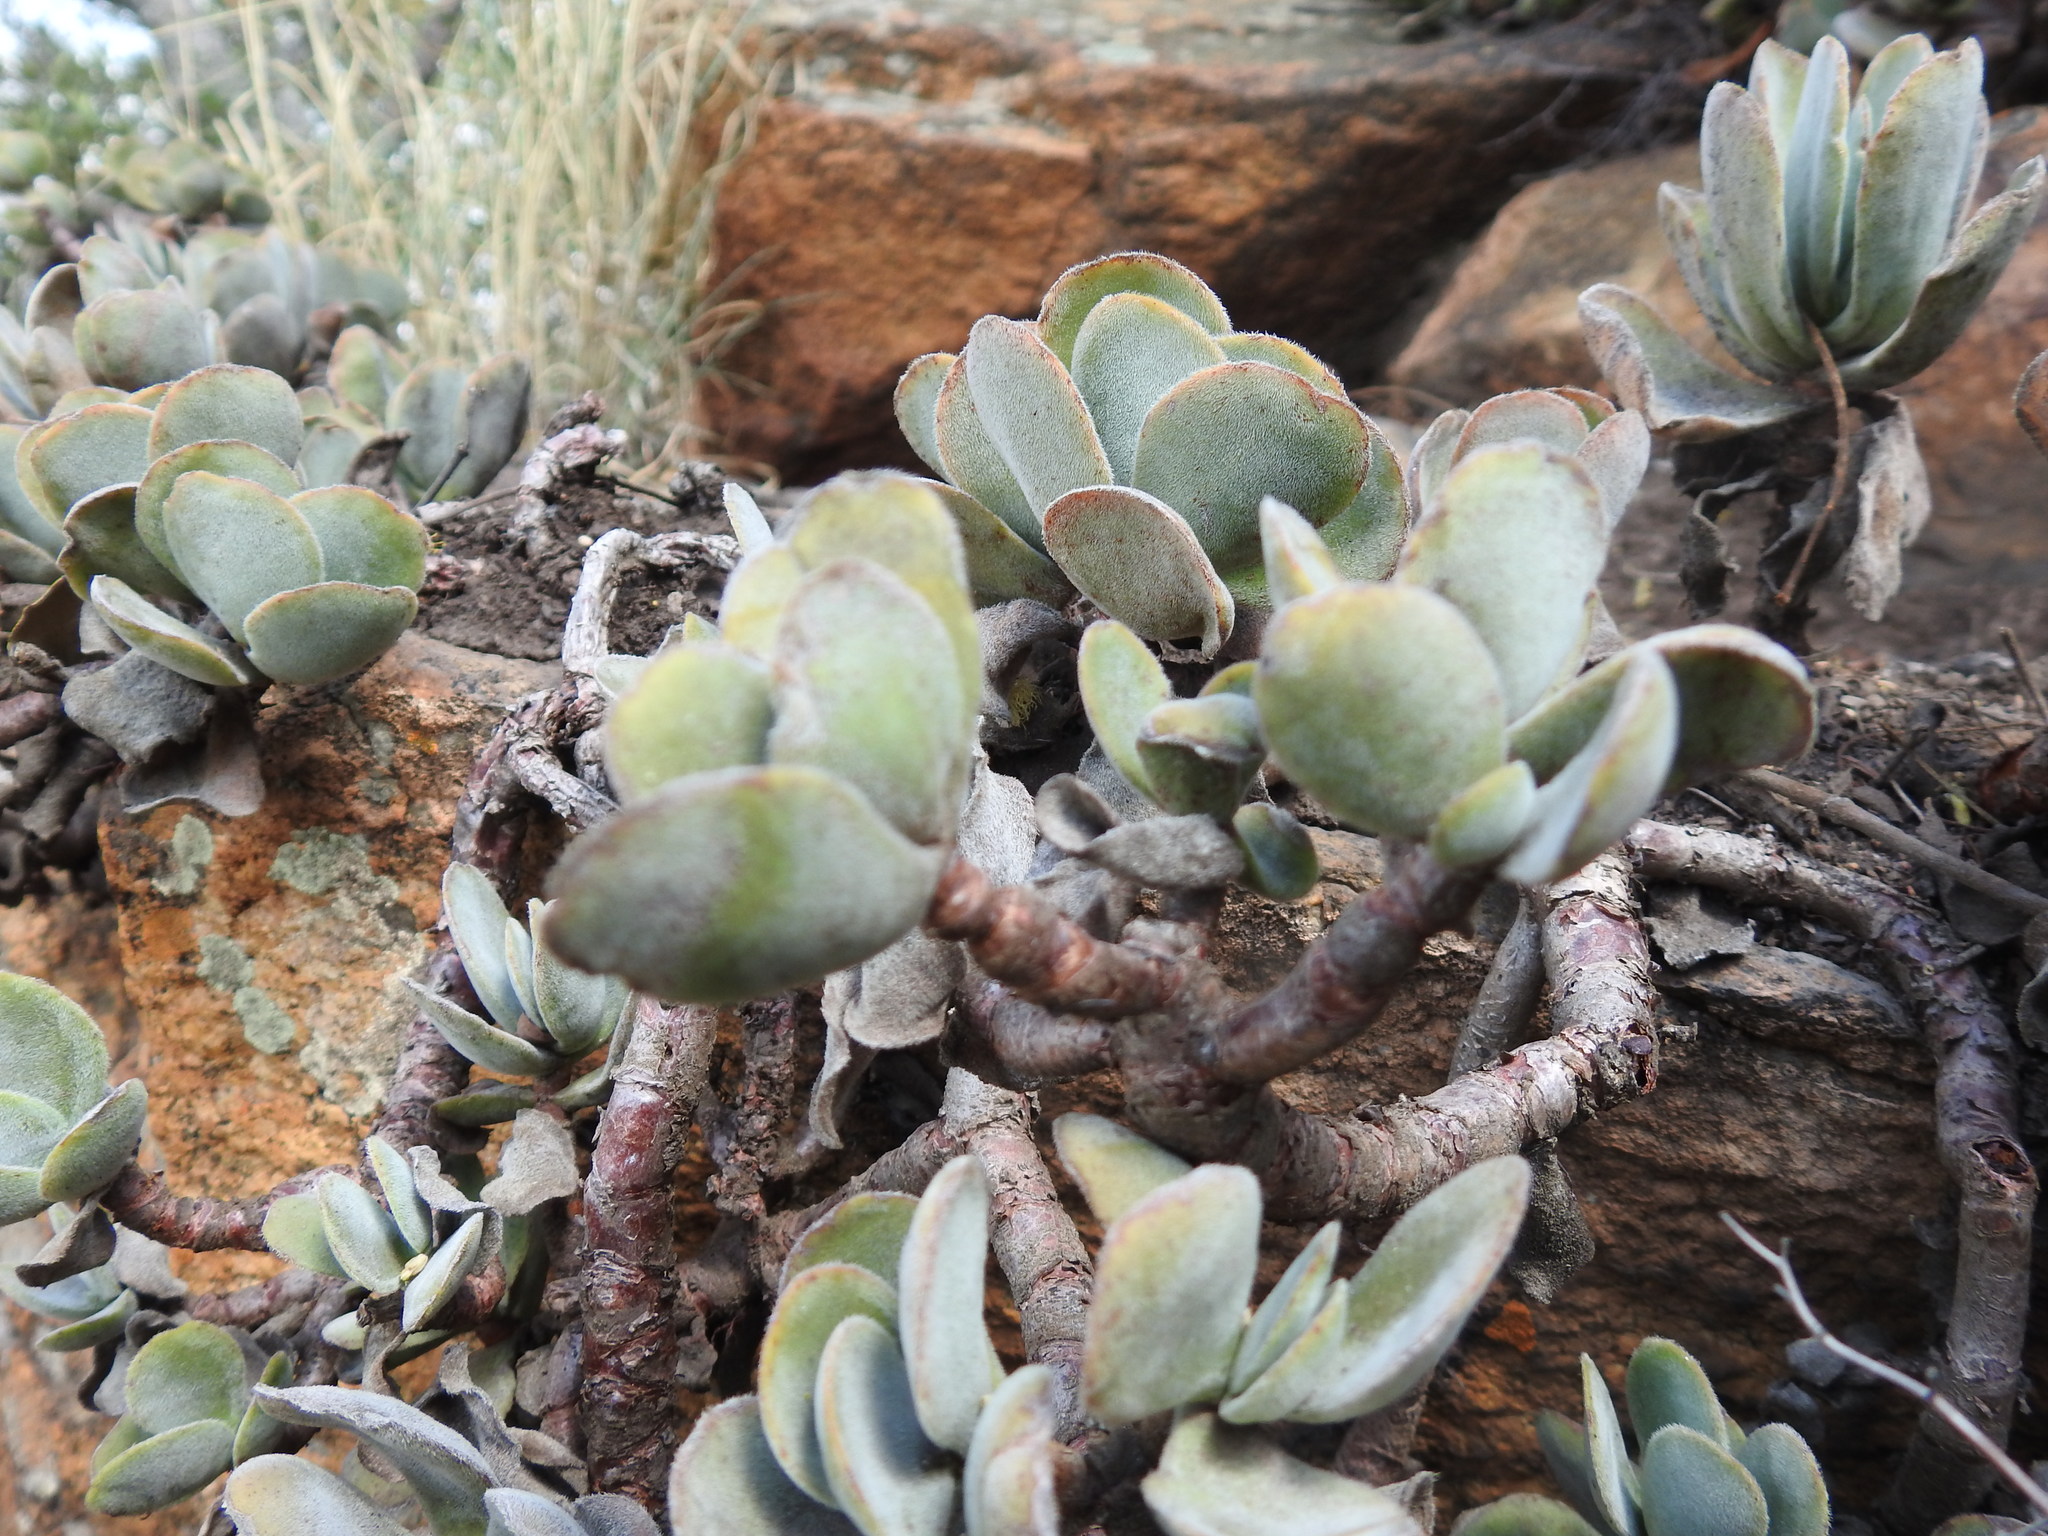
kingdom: Plantae
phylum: Tracheophyta
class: Magnoliopsida
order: Saxifragales
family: Crassulaceae
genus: Crassula
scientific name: Crassula globularioides
